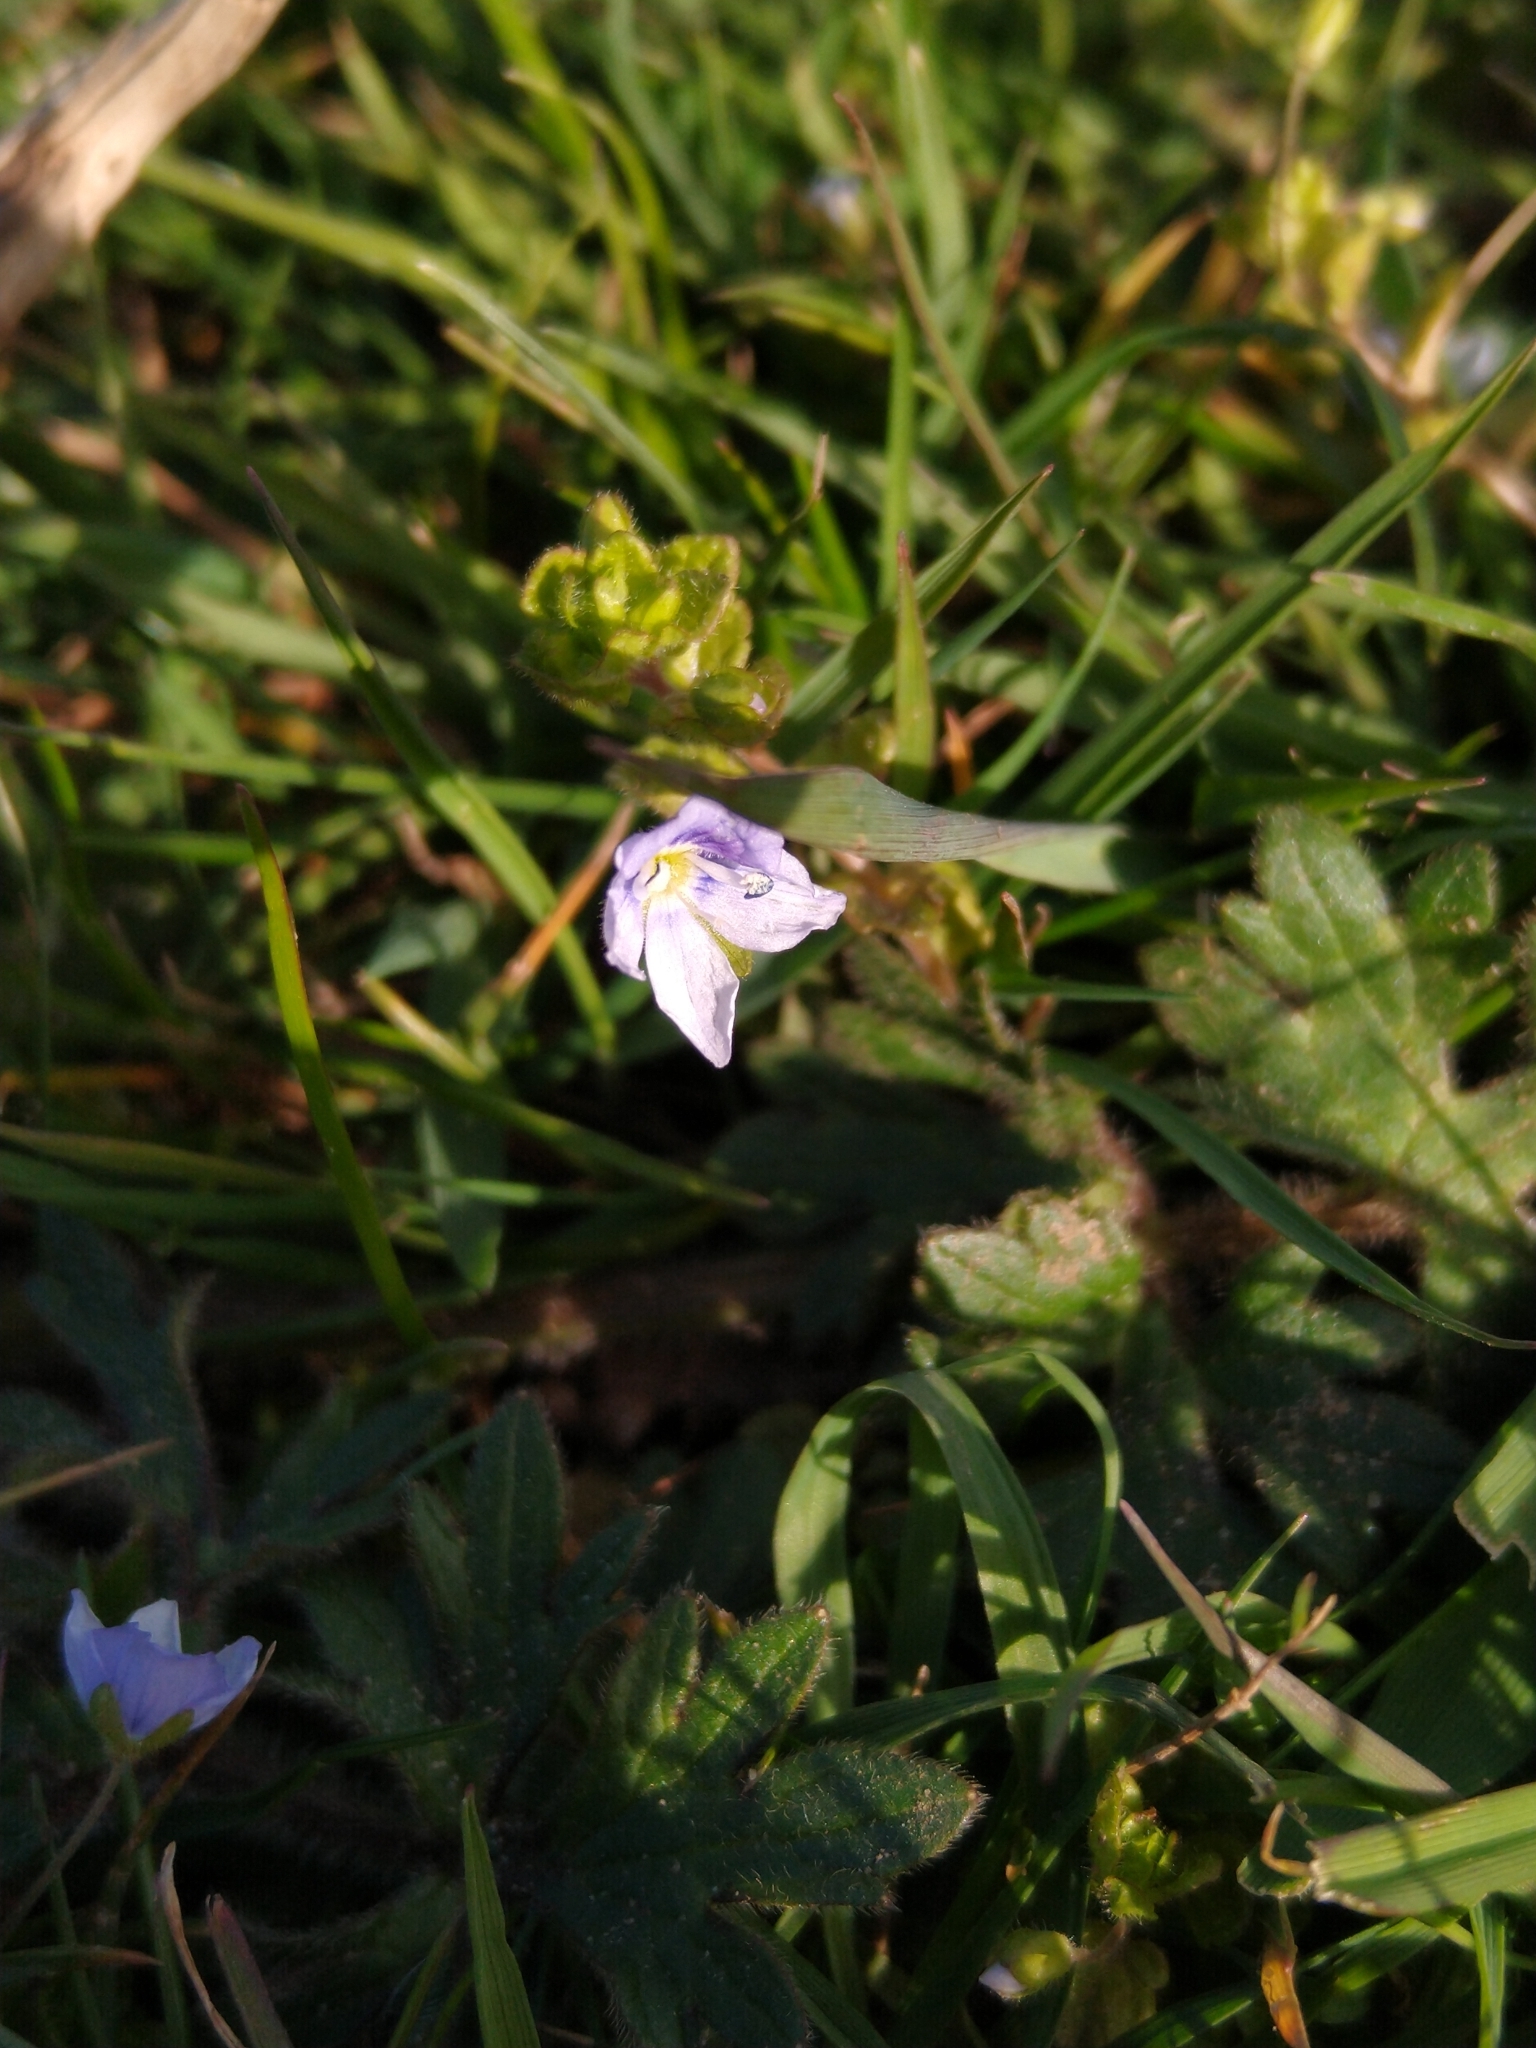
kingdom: Plantae
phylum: Tracheophyta
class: Magnoliopsida
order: Lamiales
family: Plantaginaceae
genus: Veronica
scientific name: Veronica filiformis
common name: Slender speedwell
